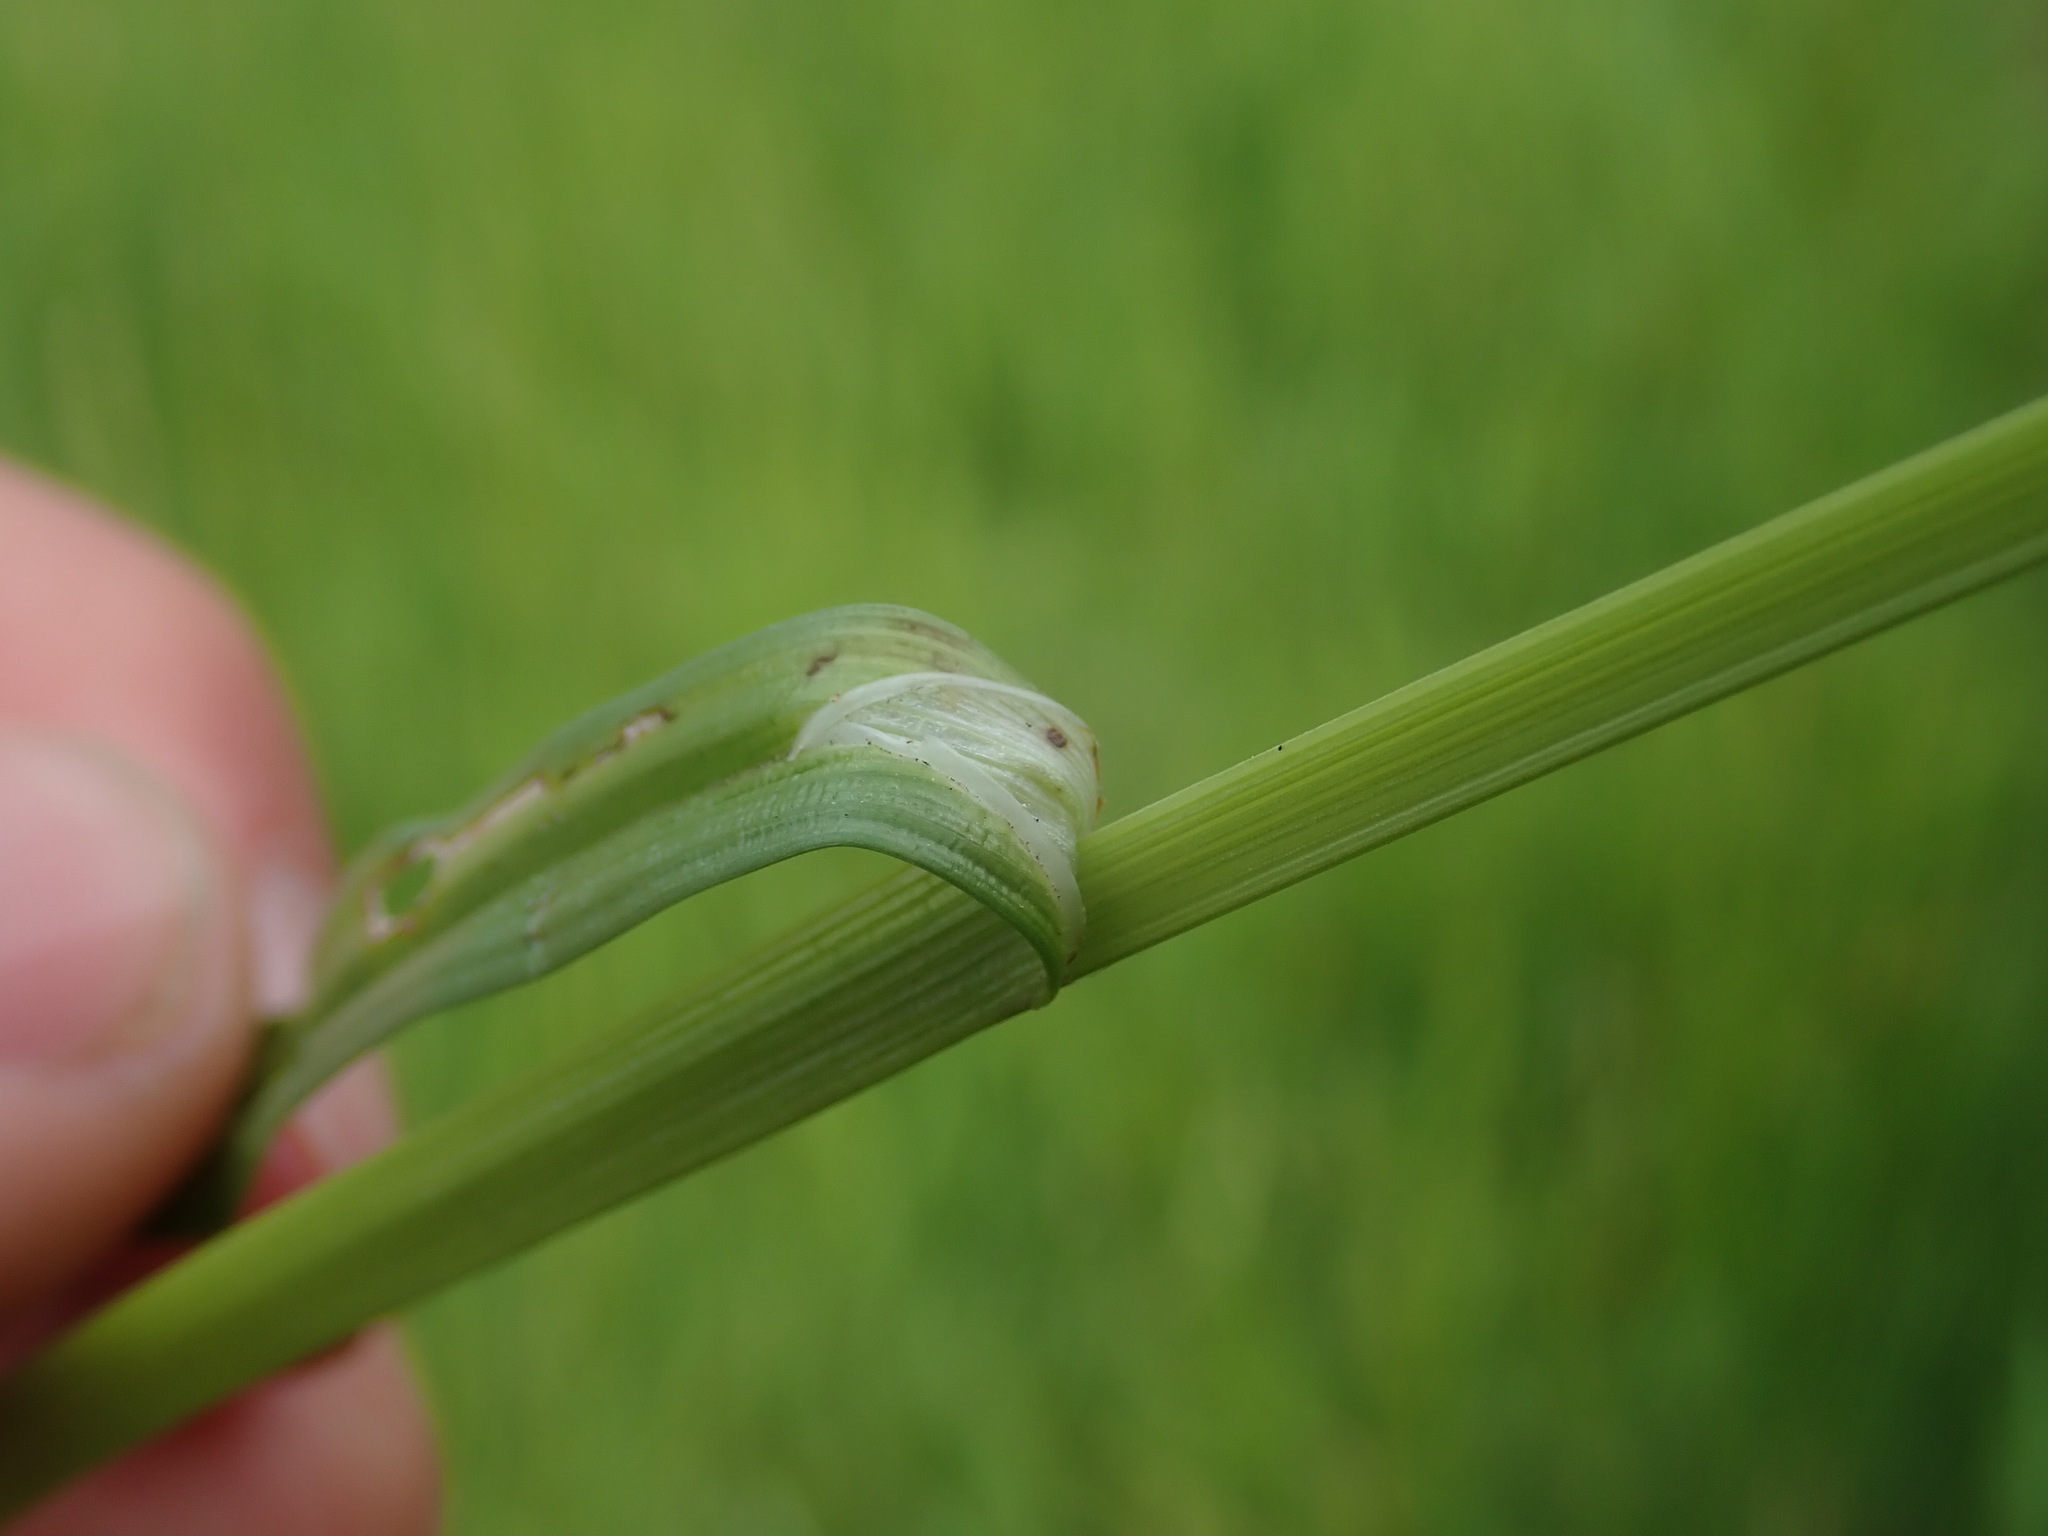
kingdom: Plantae
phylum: Tracheophyta
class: Liliopsida
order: Poales
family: Cyperaceae
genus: Carex
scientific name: Carex otrubae
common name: False fox-sedge
